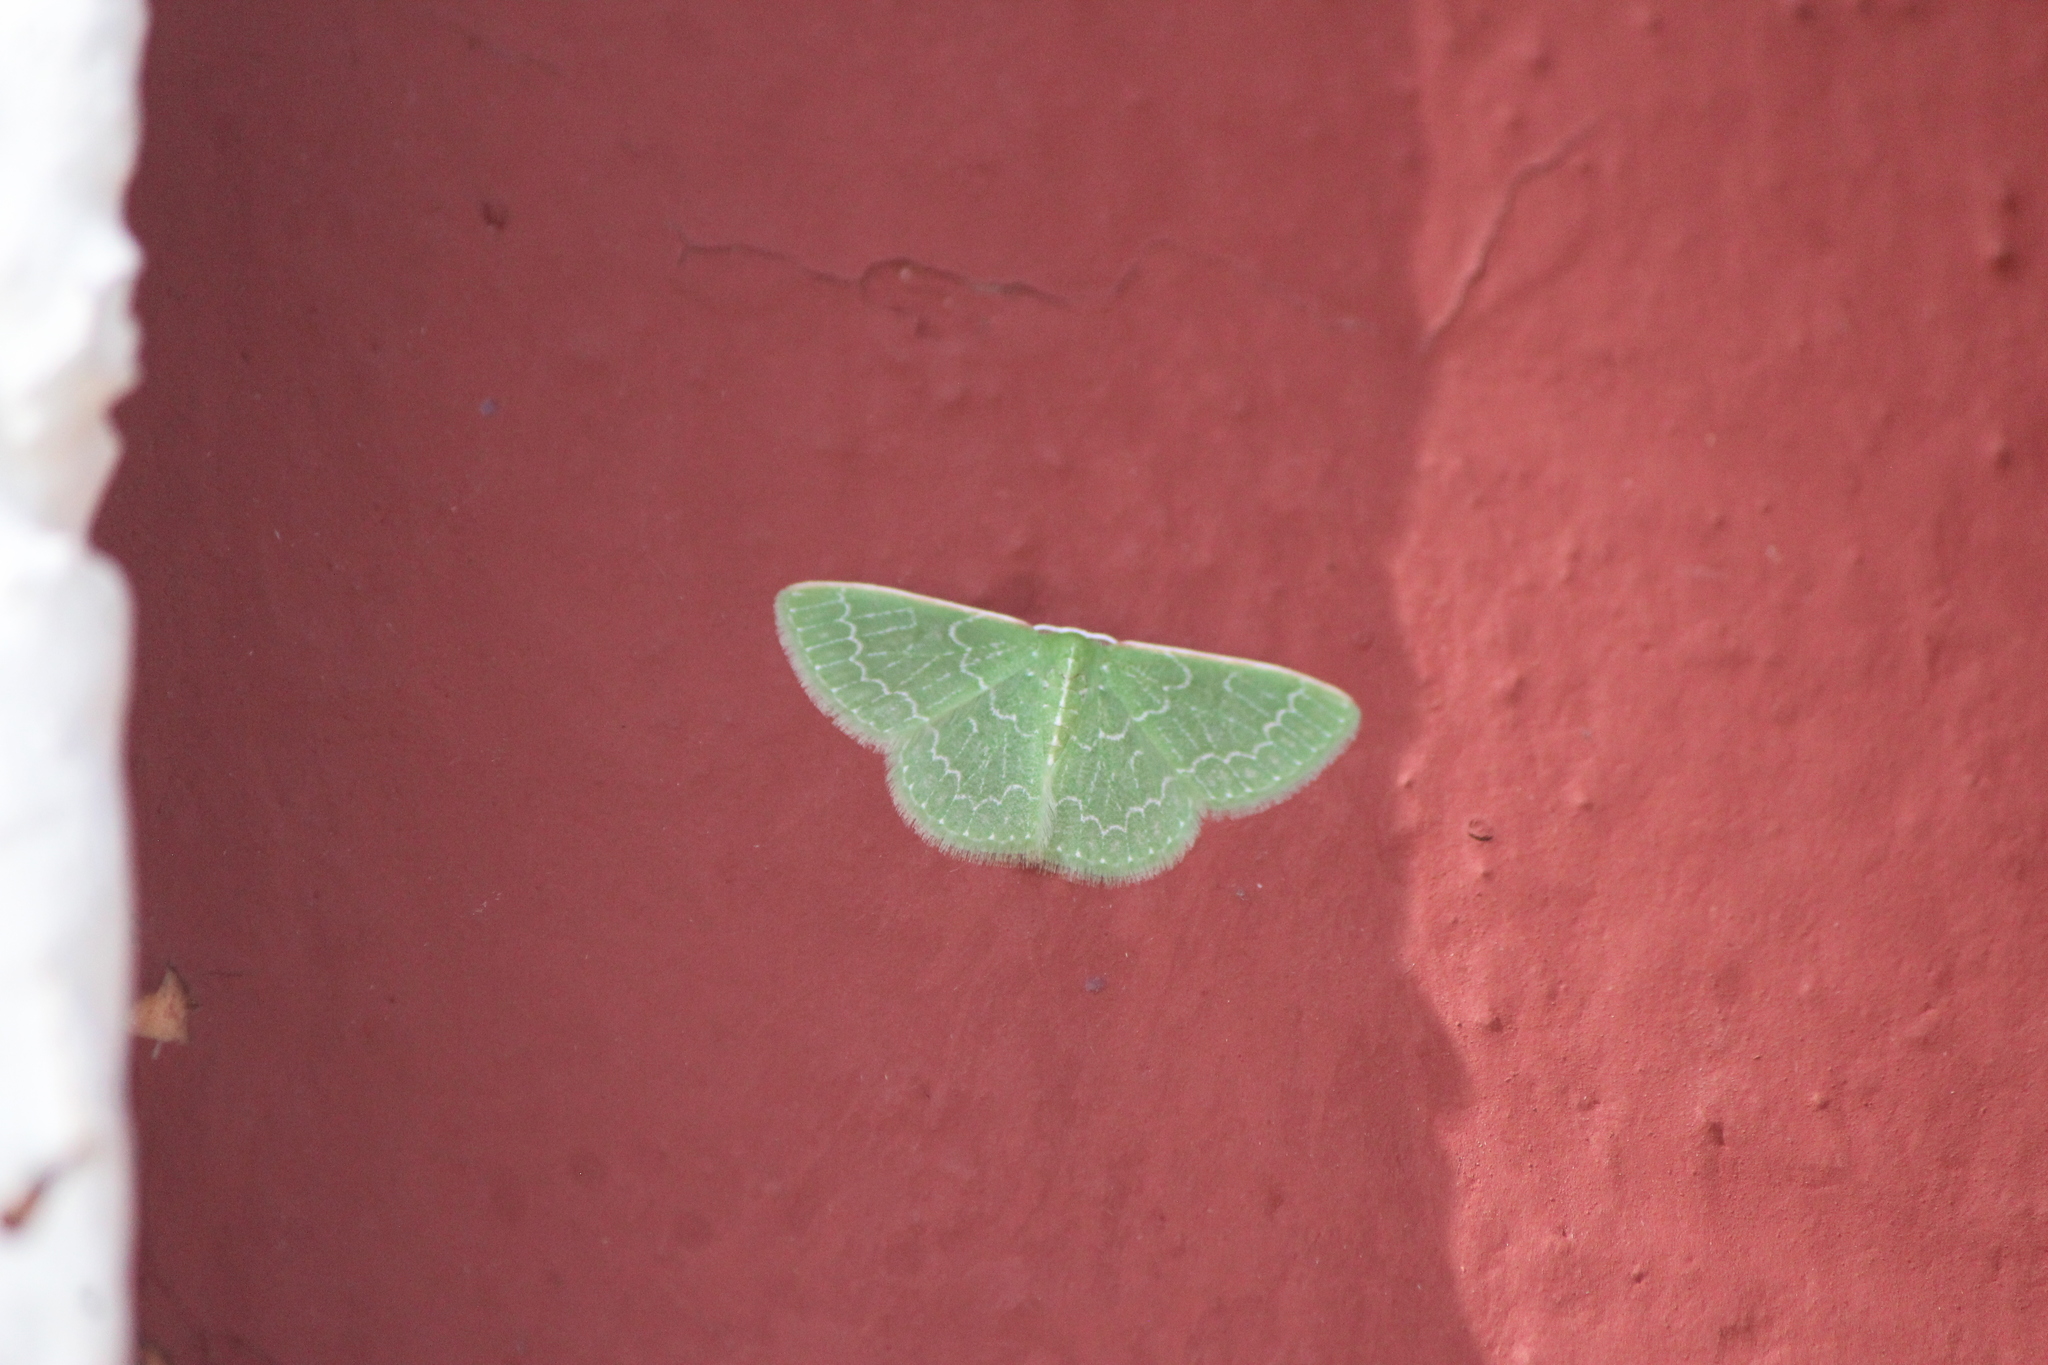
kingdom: Animalia
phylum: Arthropoda
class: Insecta
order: Lepidoptera
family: Geometridae
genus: Synchlora
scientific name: Synchlora frondaria
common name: Southern emerald
